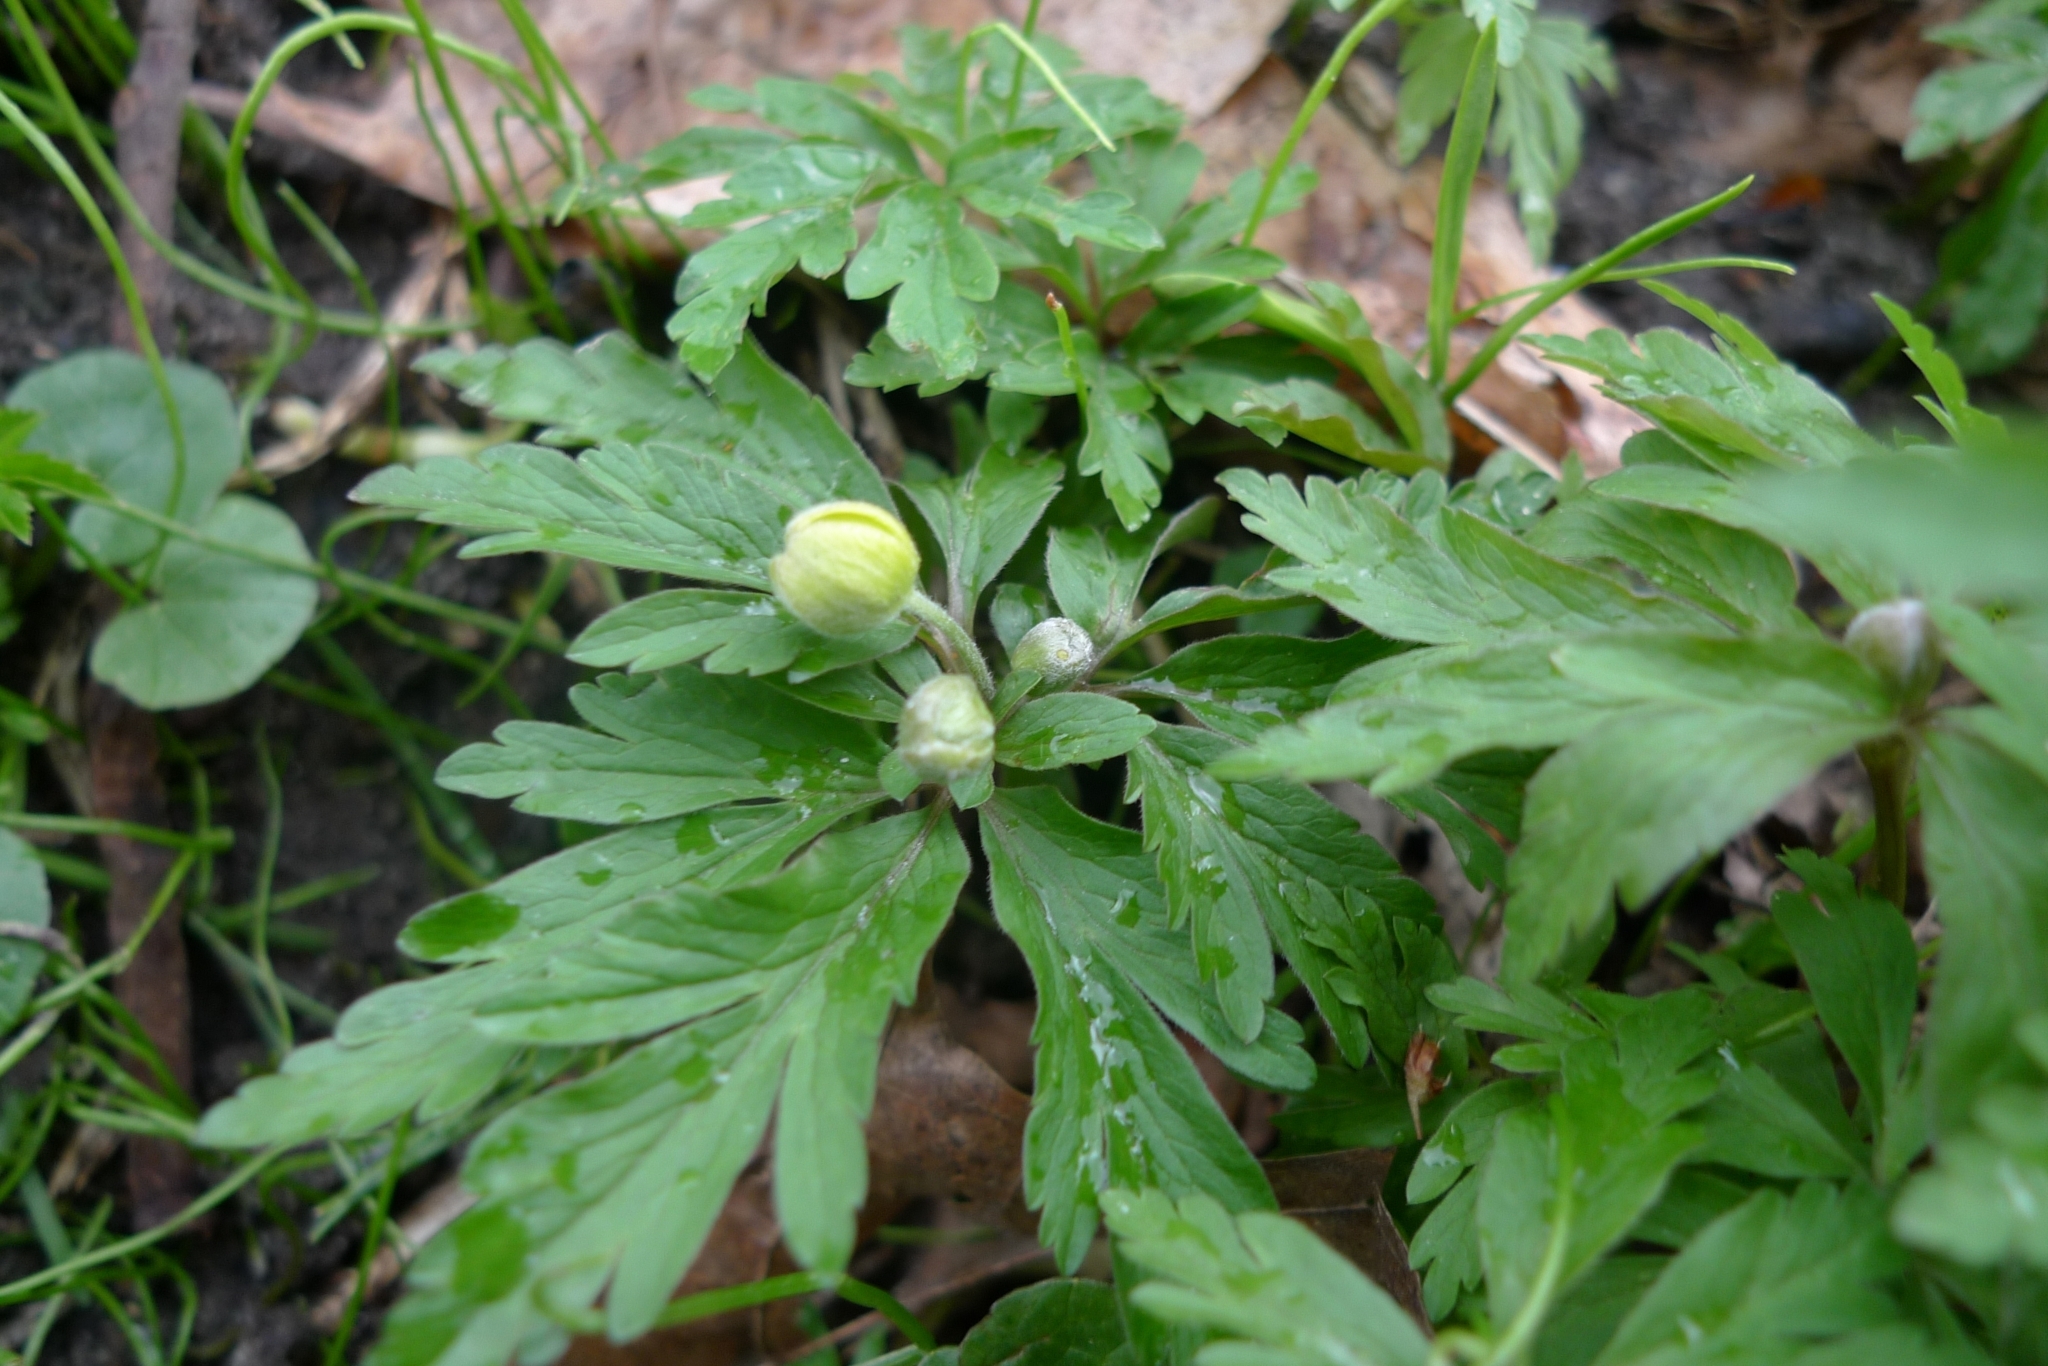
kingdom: Plantae
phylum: Tracheophyta
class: Magnoliopsida
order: Ranunculales
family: Ranunculaceae
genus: Anemone
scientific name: Anemone ranunculoides
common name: Yellow anemone
